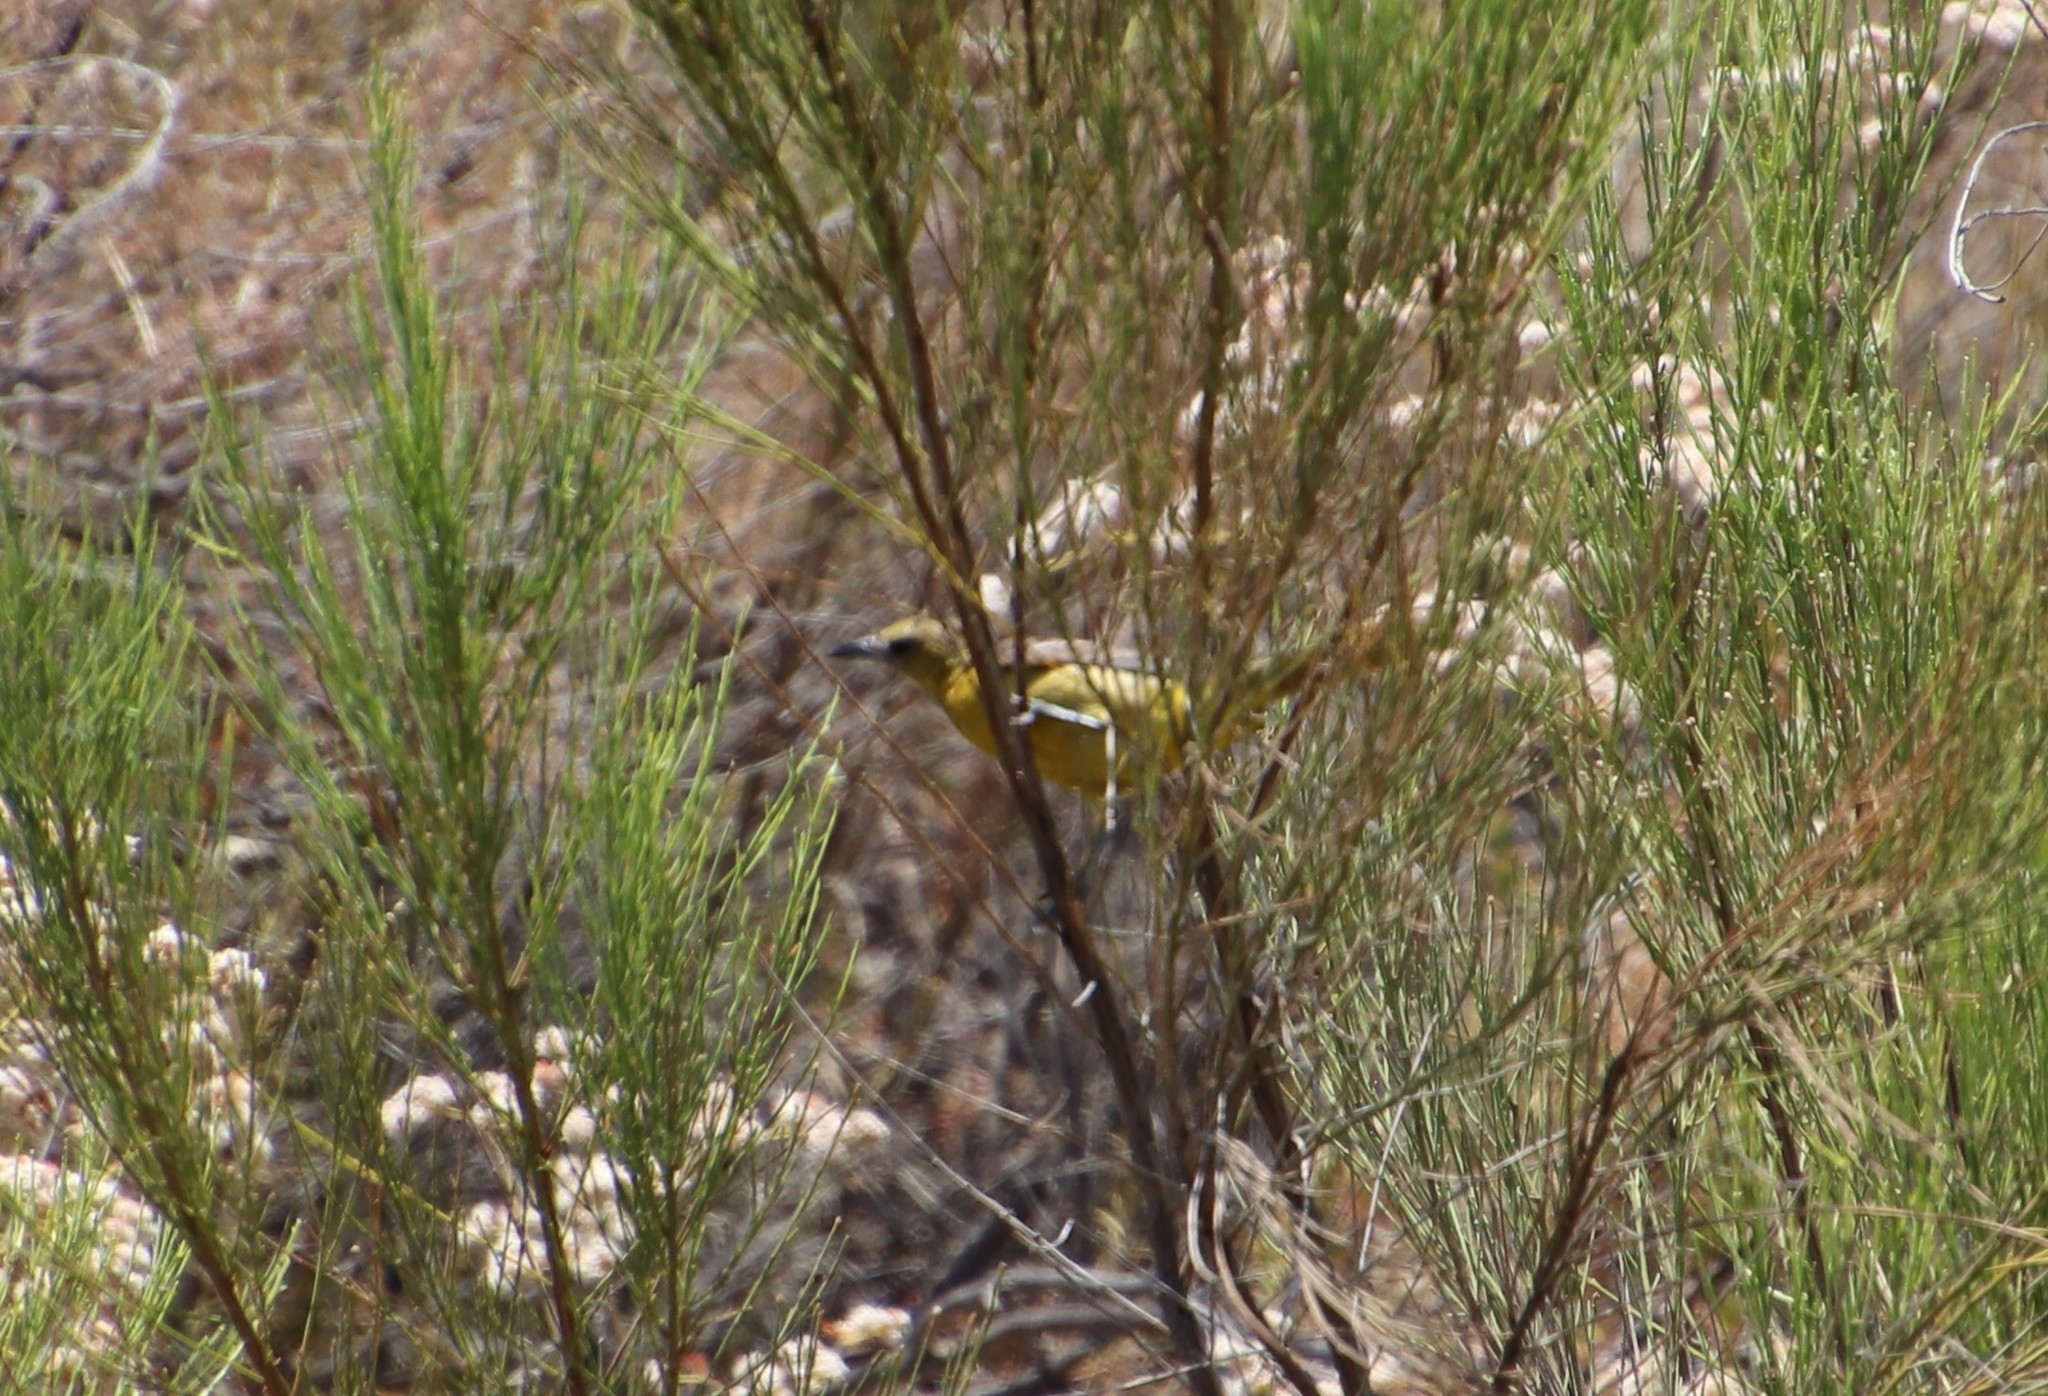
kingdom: Animalia
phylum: Chordata
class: Aves
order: Passeriformes
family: Icteridae
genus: Icterus
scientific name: Icterus cucullatus
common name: Hooded oriole
